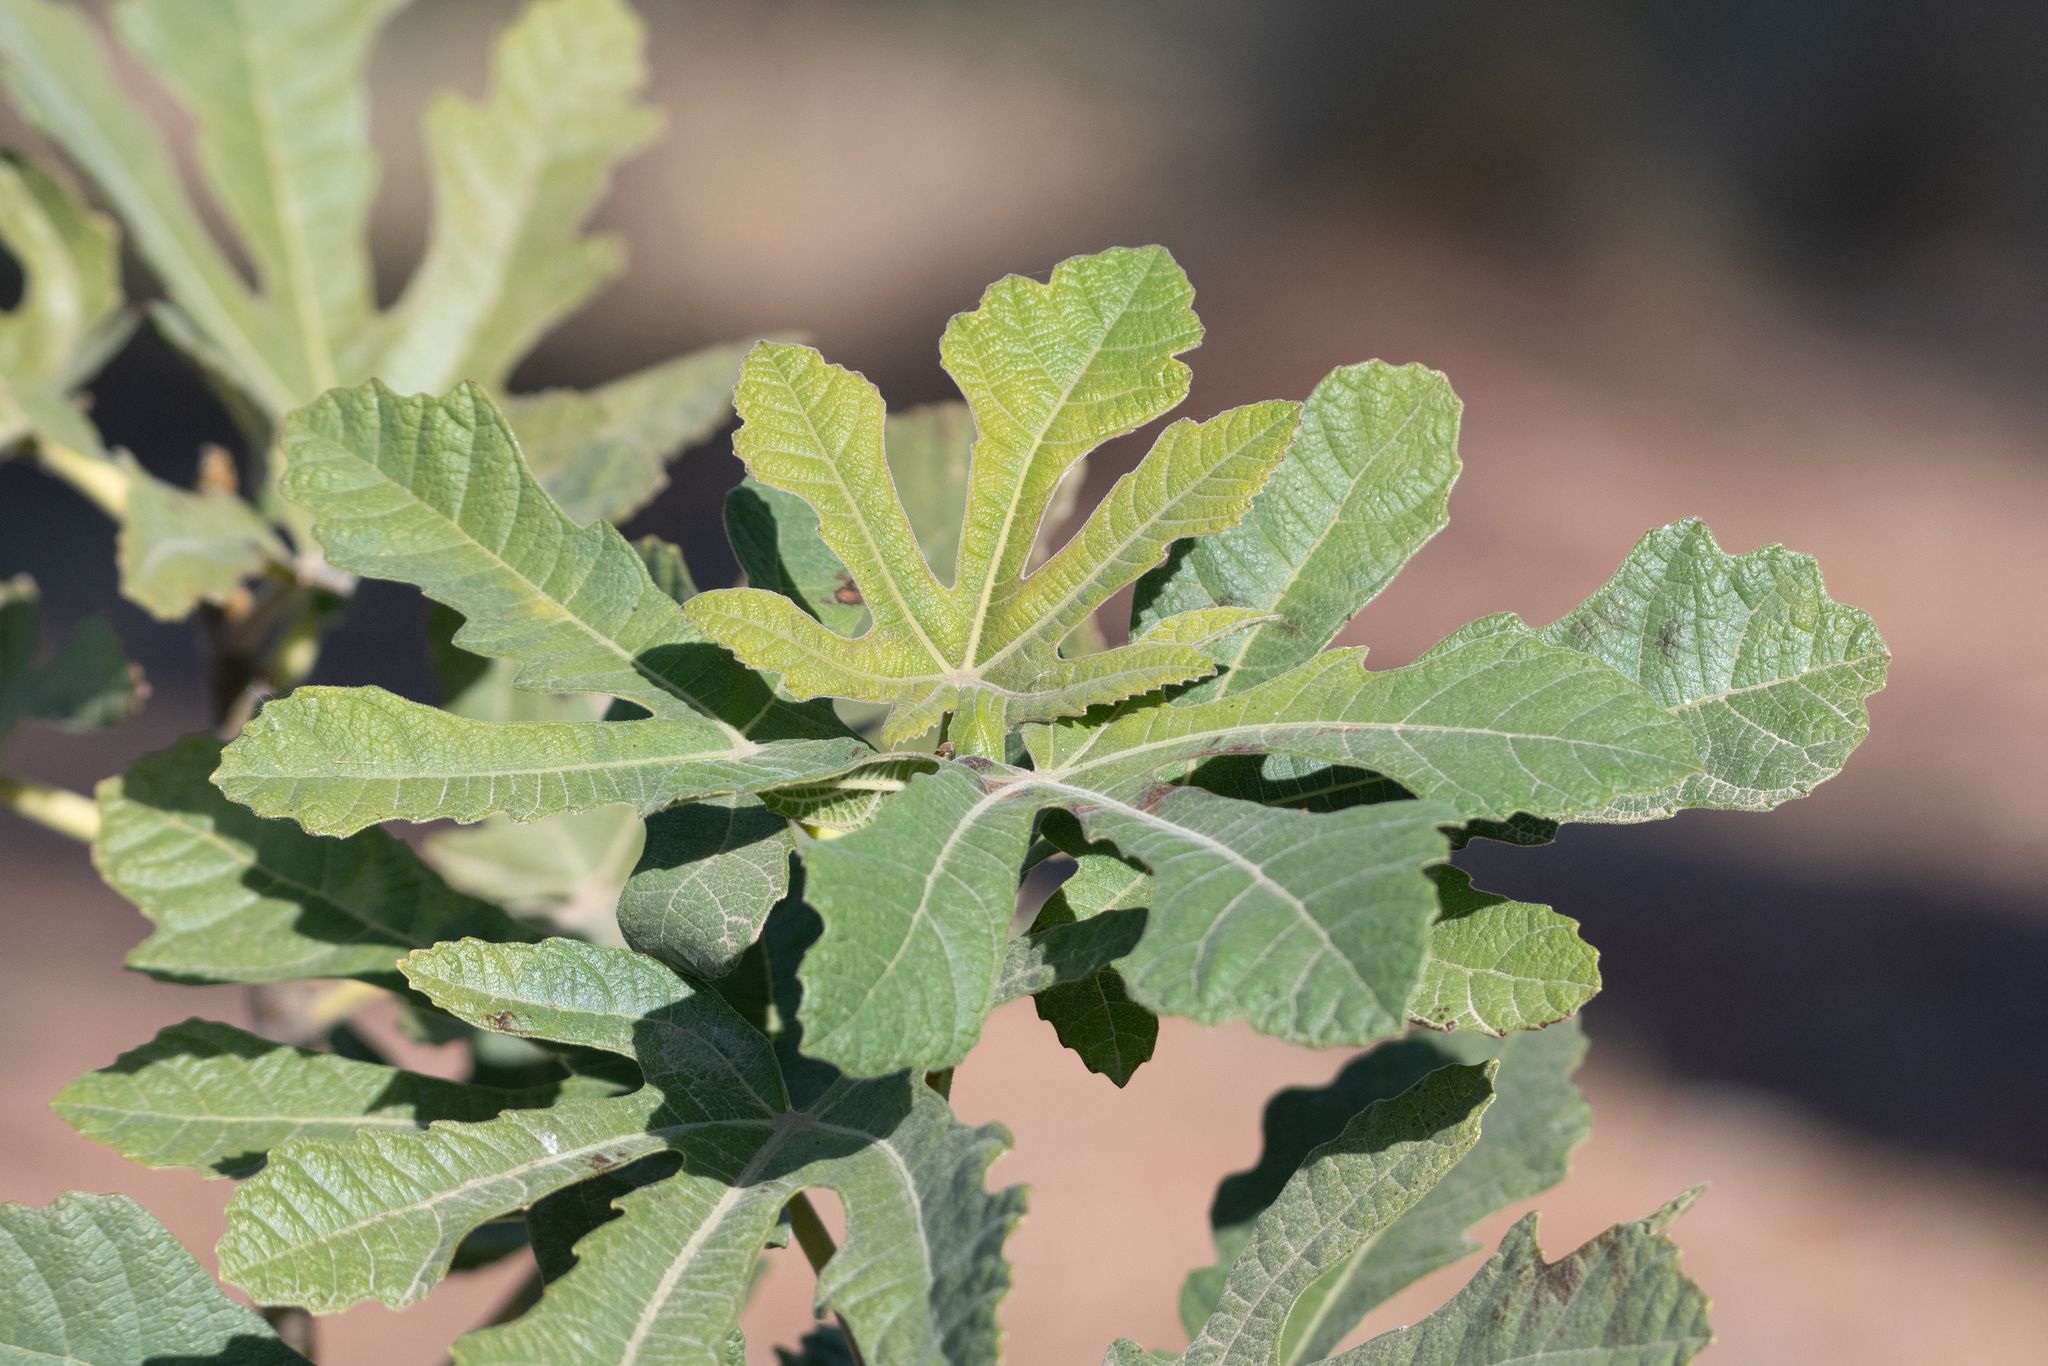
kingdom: Plantae
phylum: Tracheophyta
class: Magnoliopsida
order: Rosales
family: Moraceae
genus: Ficus
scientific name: Ficus carica
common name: Fig
